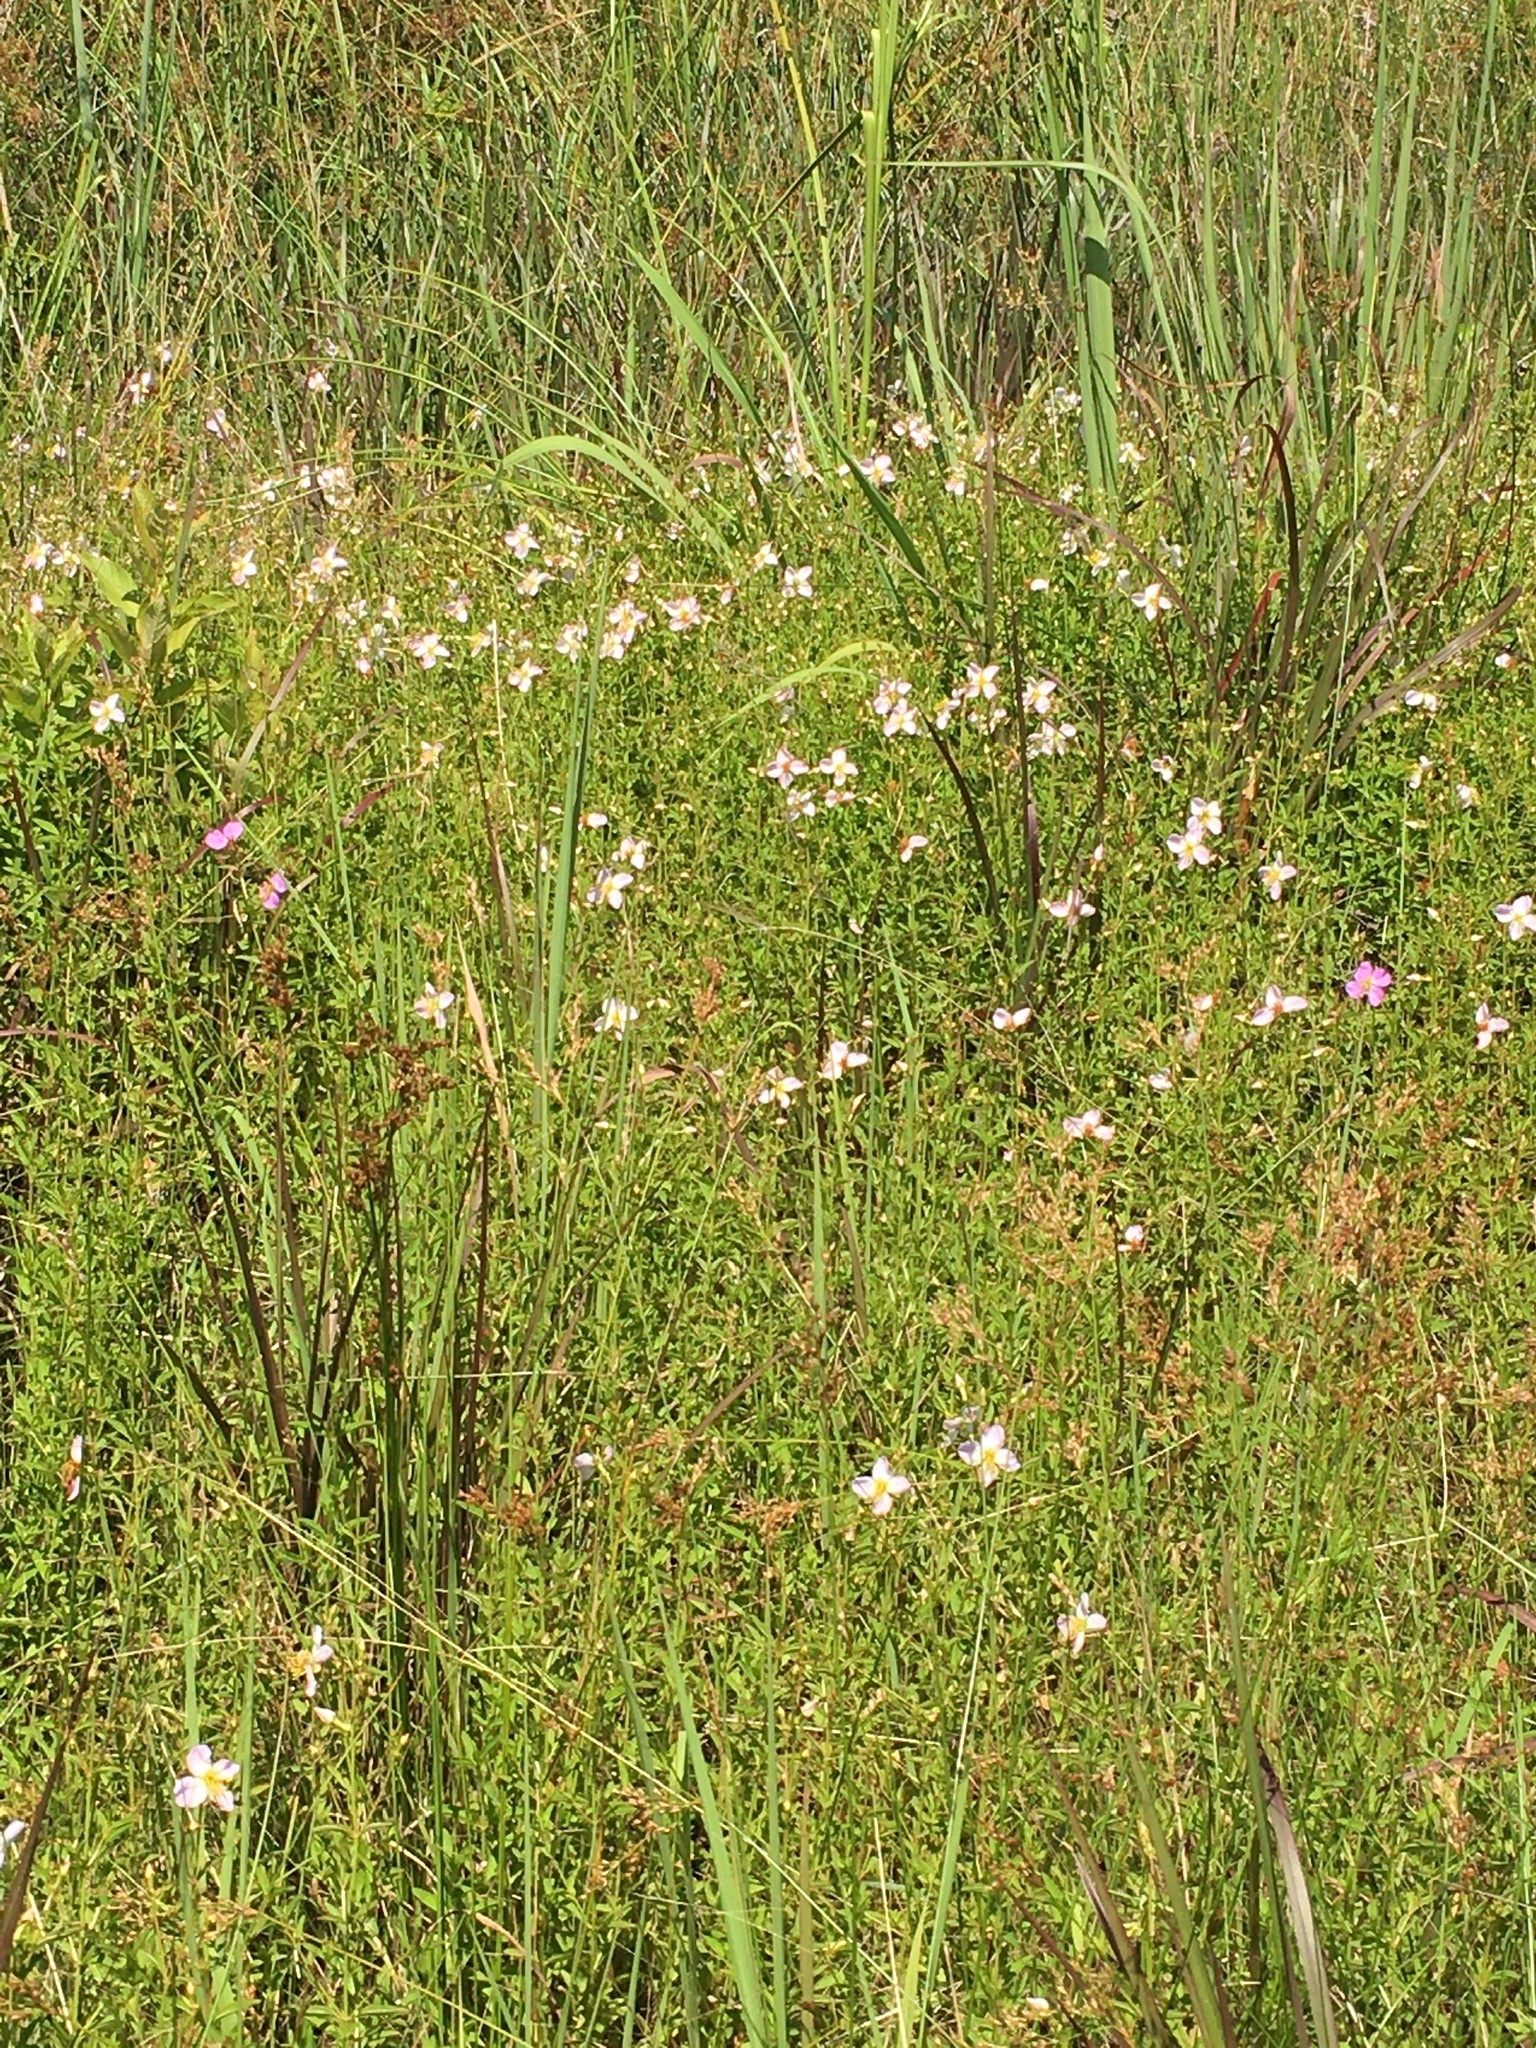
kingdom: Plantae
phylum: Tracheophyta
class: Magnoliopsida
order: Myrtales
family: Melastomataceae
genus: Rhexia
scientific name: Rhexia mariana
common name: Dull meadow-pitcher
